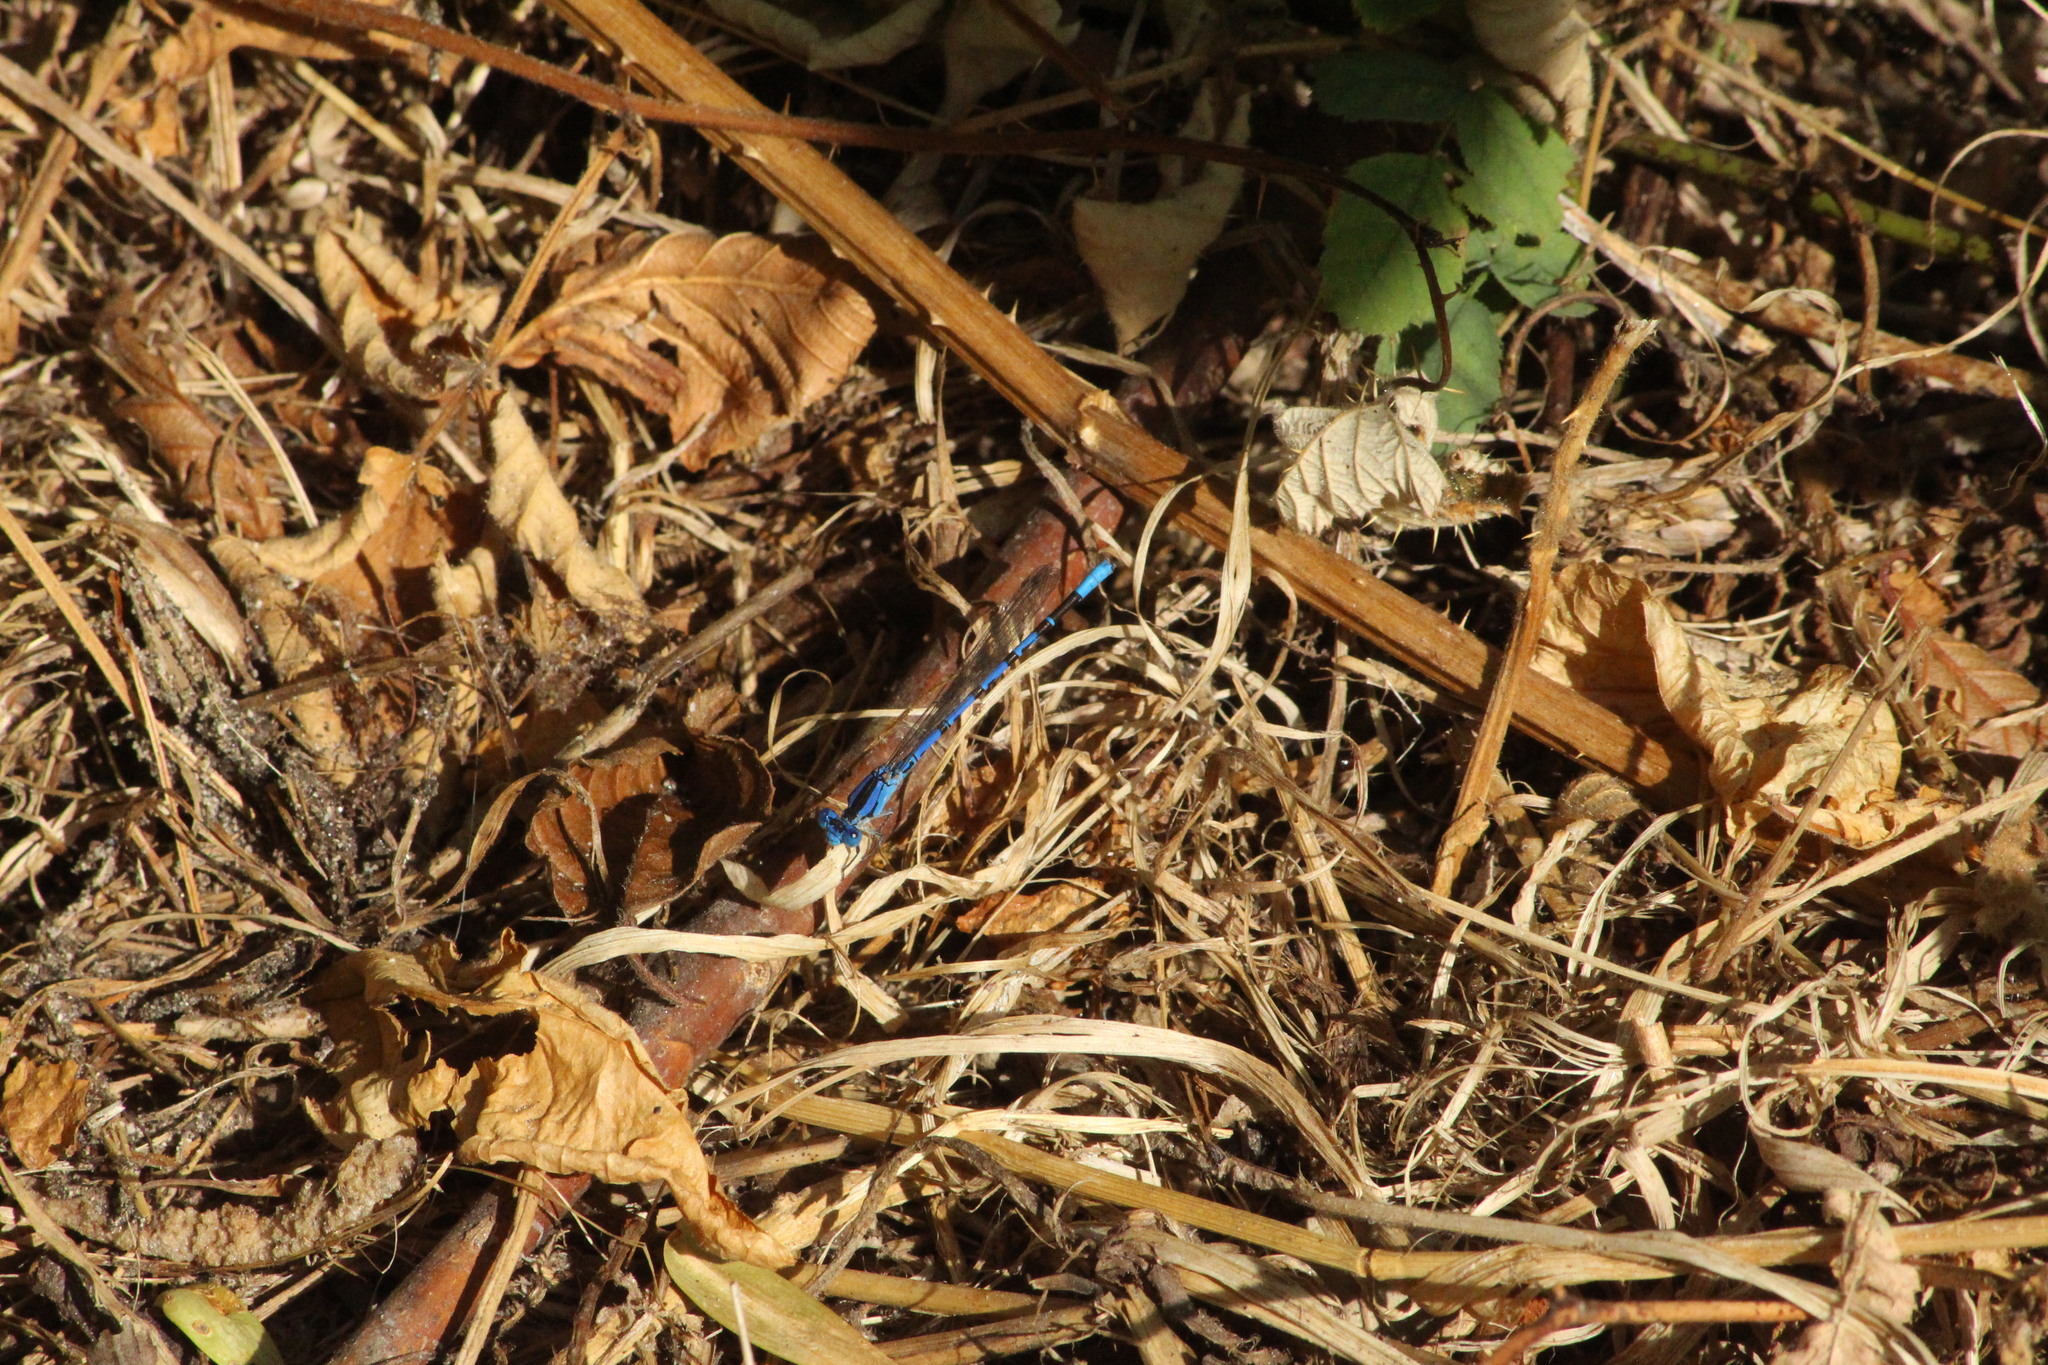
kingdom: Animalia
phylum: Arthropoda
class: Insecta
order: Odonata
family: Coenagrionidae
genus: Argia
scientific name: Argia vivida
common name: Vivid dancer
